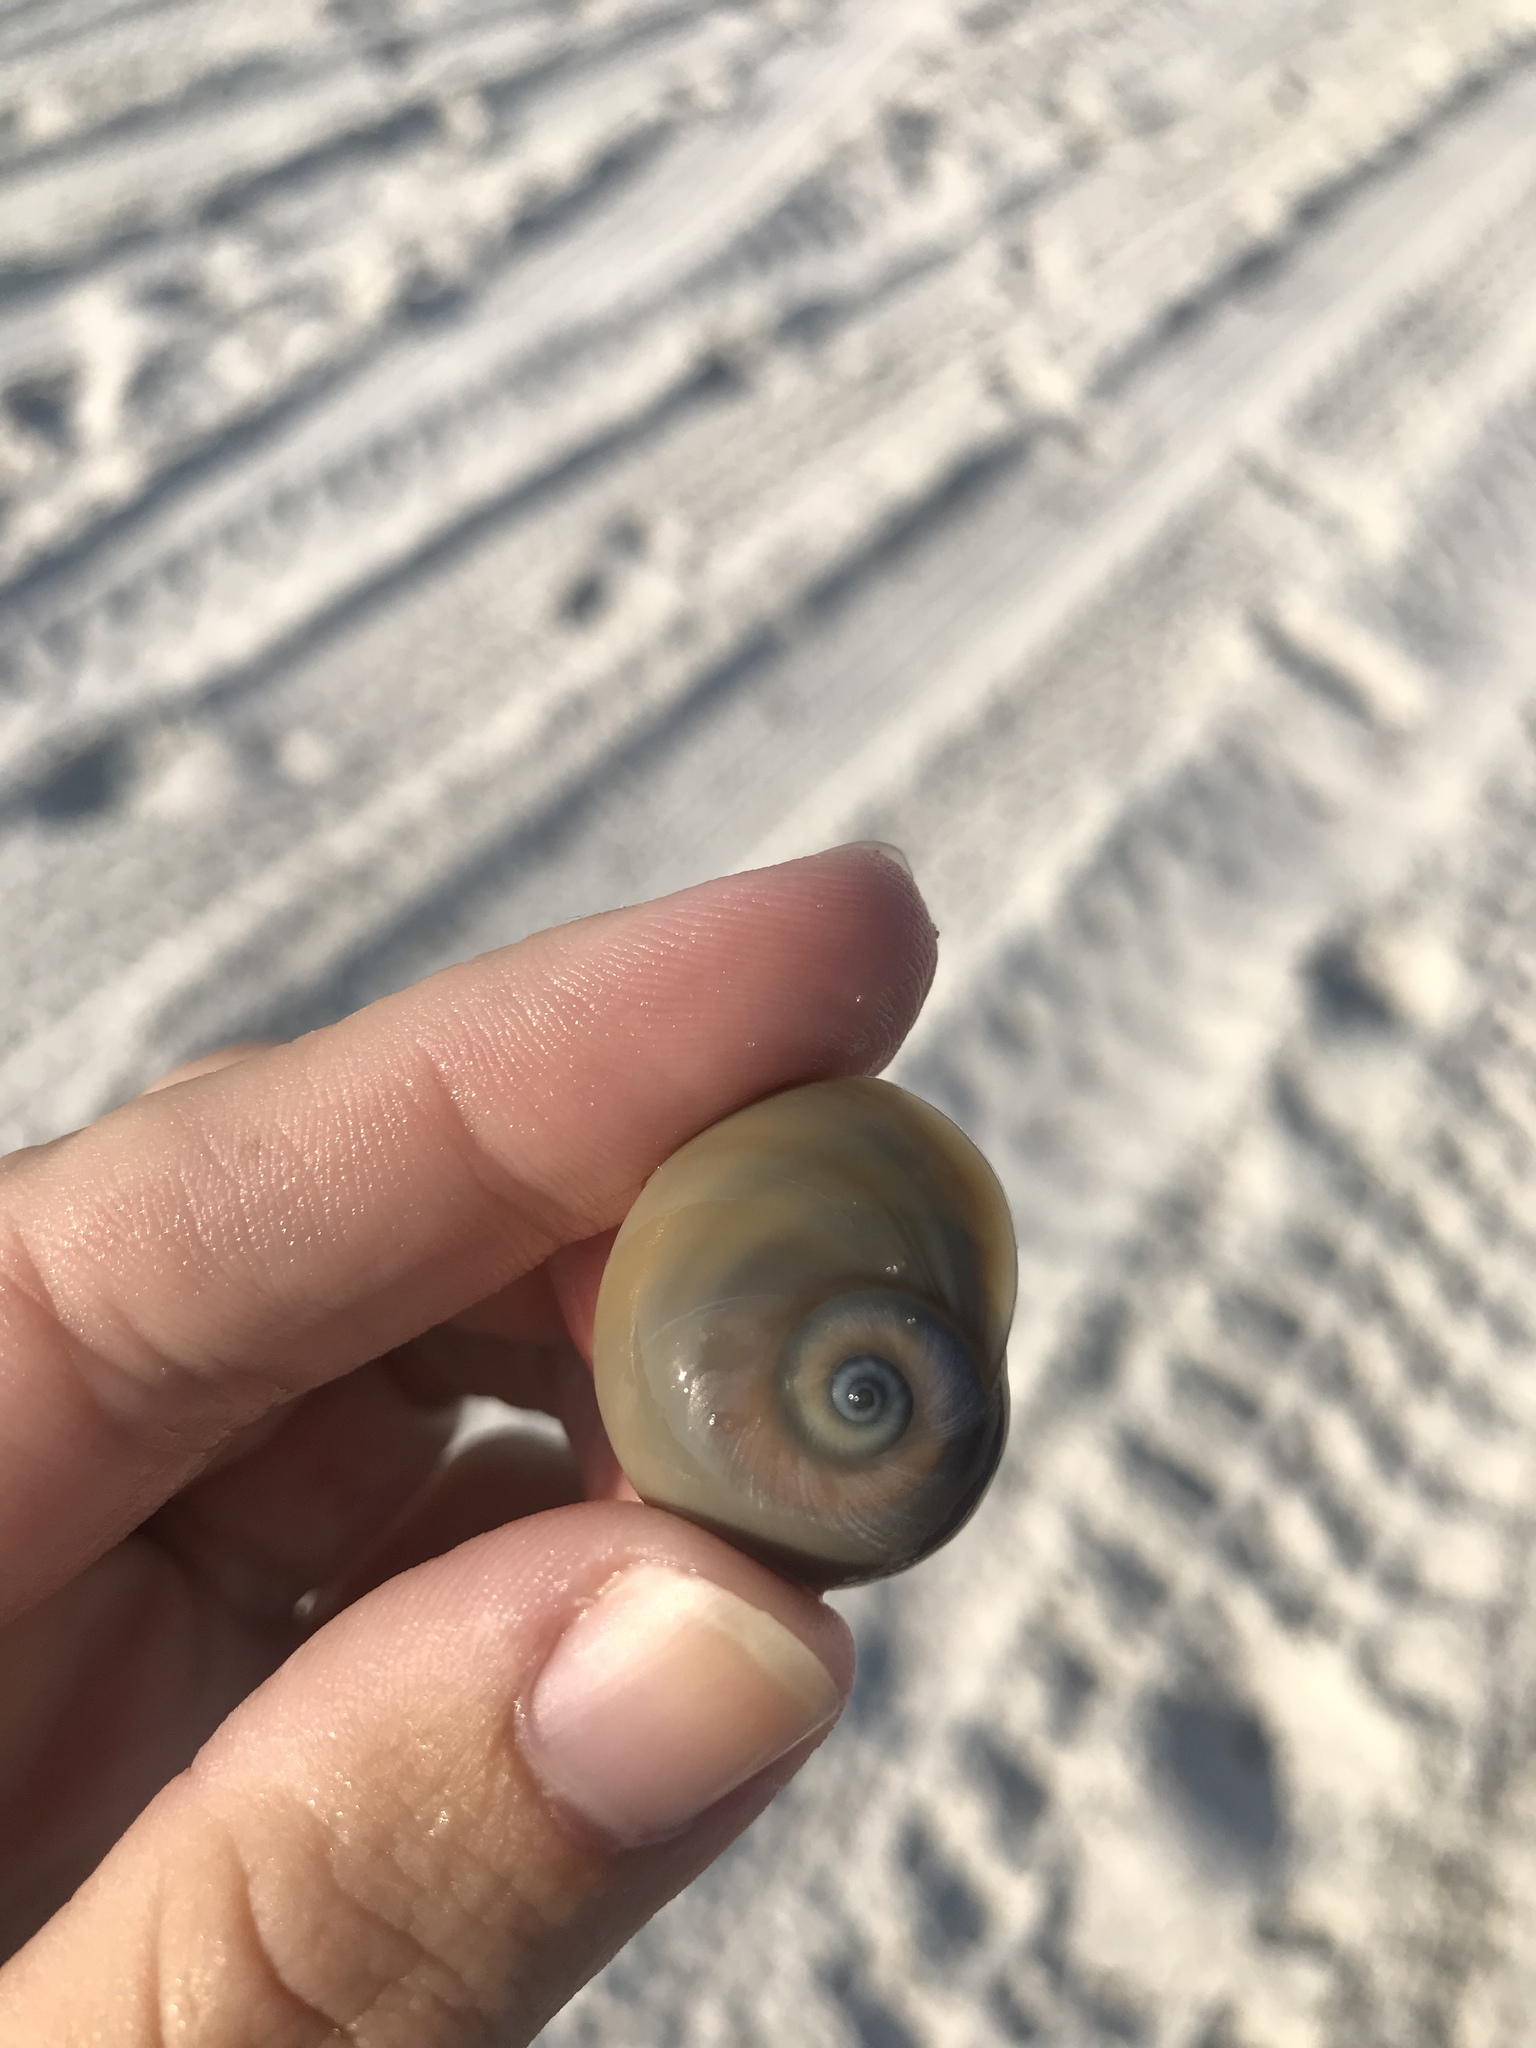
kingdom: Animalia
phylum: Mollusca
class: Gastropoda
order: Littorinimorpha
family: Naticidae
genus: Neverita
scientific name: Neverita duplicata
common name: Lobed moonsnail
